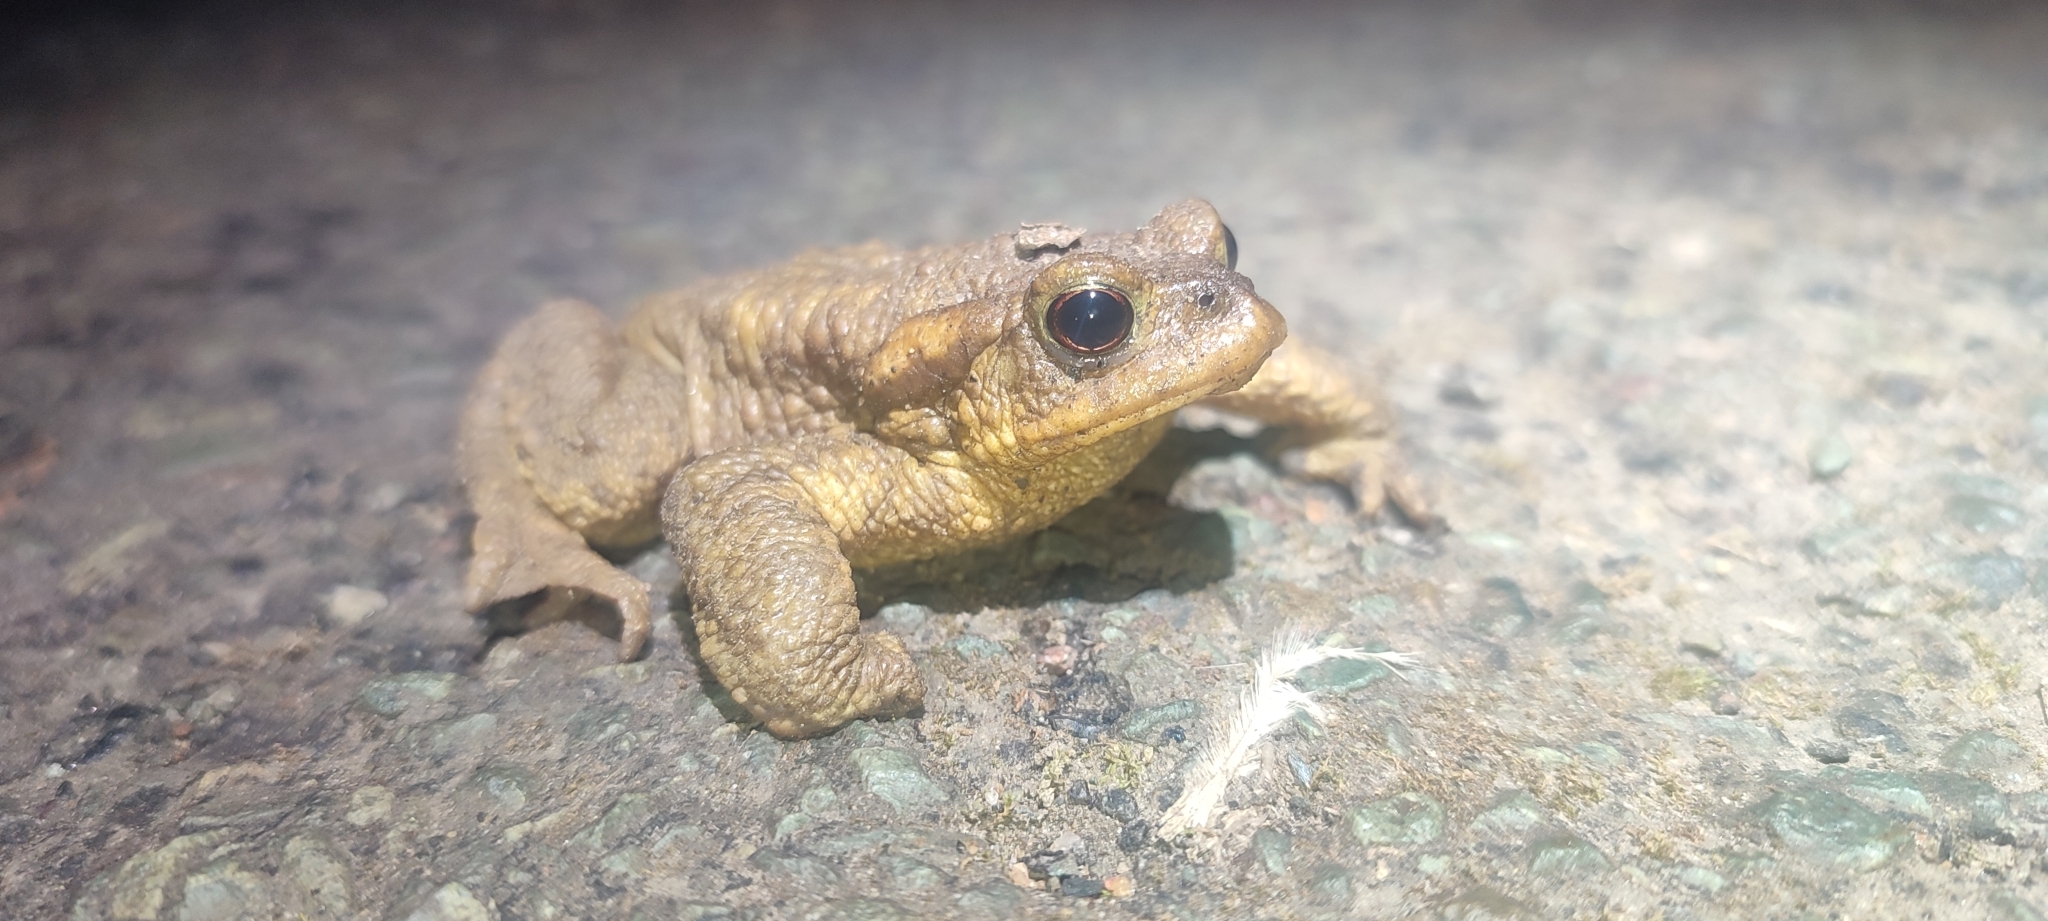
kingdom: Animalia
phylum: Chordata
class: Amphibia
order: Anura
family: Bufonidae
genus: Bufo
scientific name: Bufo spinosus
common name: Western common toad
